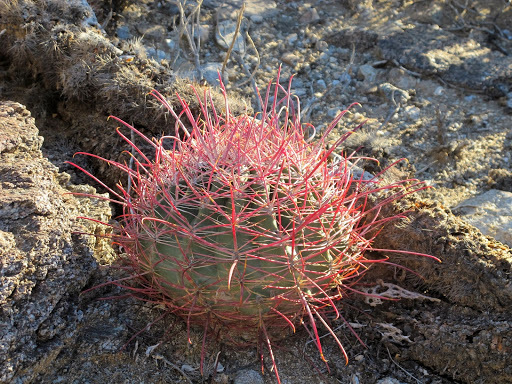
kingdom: Plantae
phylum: Tracheophyta
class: Magnoliopsida
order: Caryophyllales
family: Cactaceae
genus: Ferocactus
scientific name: Ferocactus cylindraceus
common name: California barrel cactus
